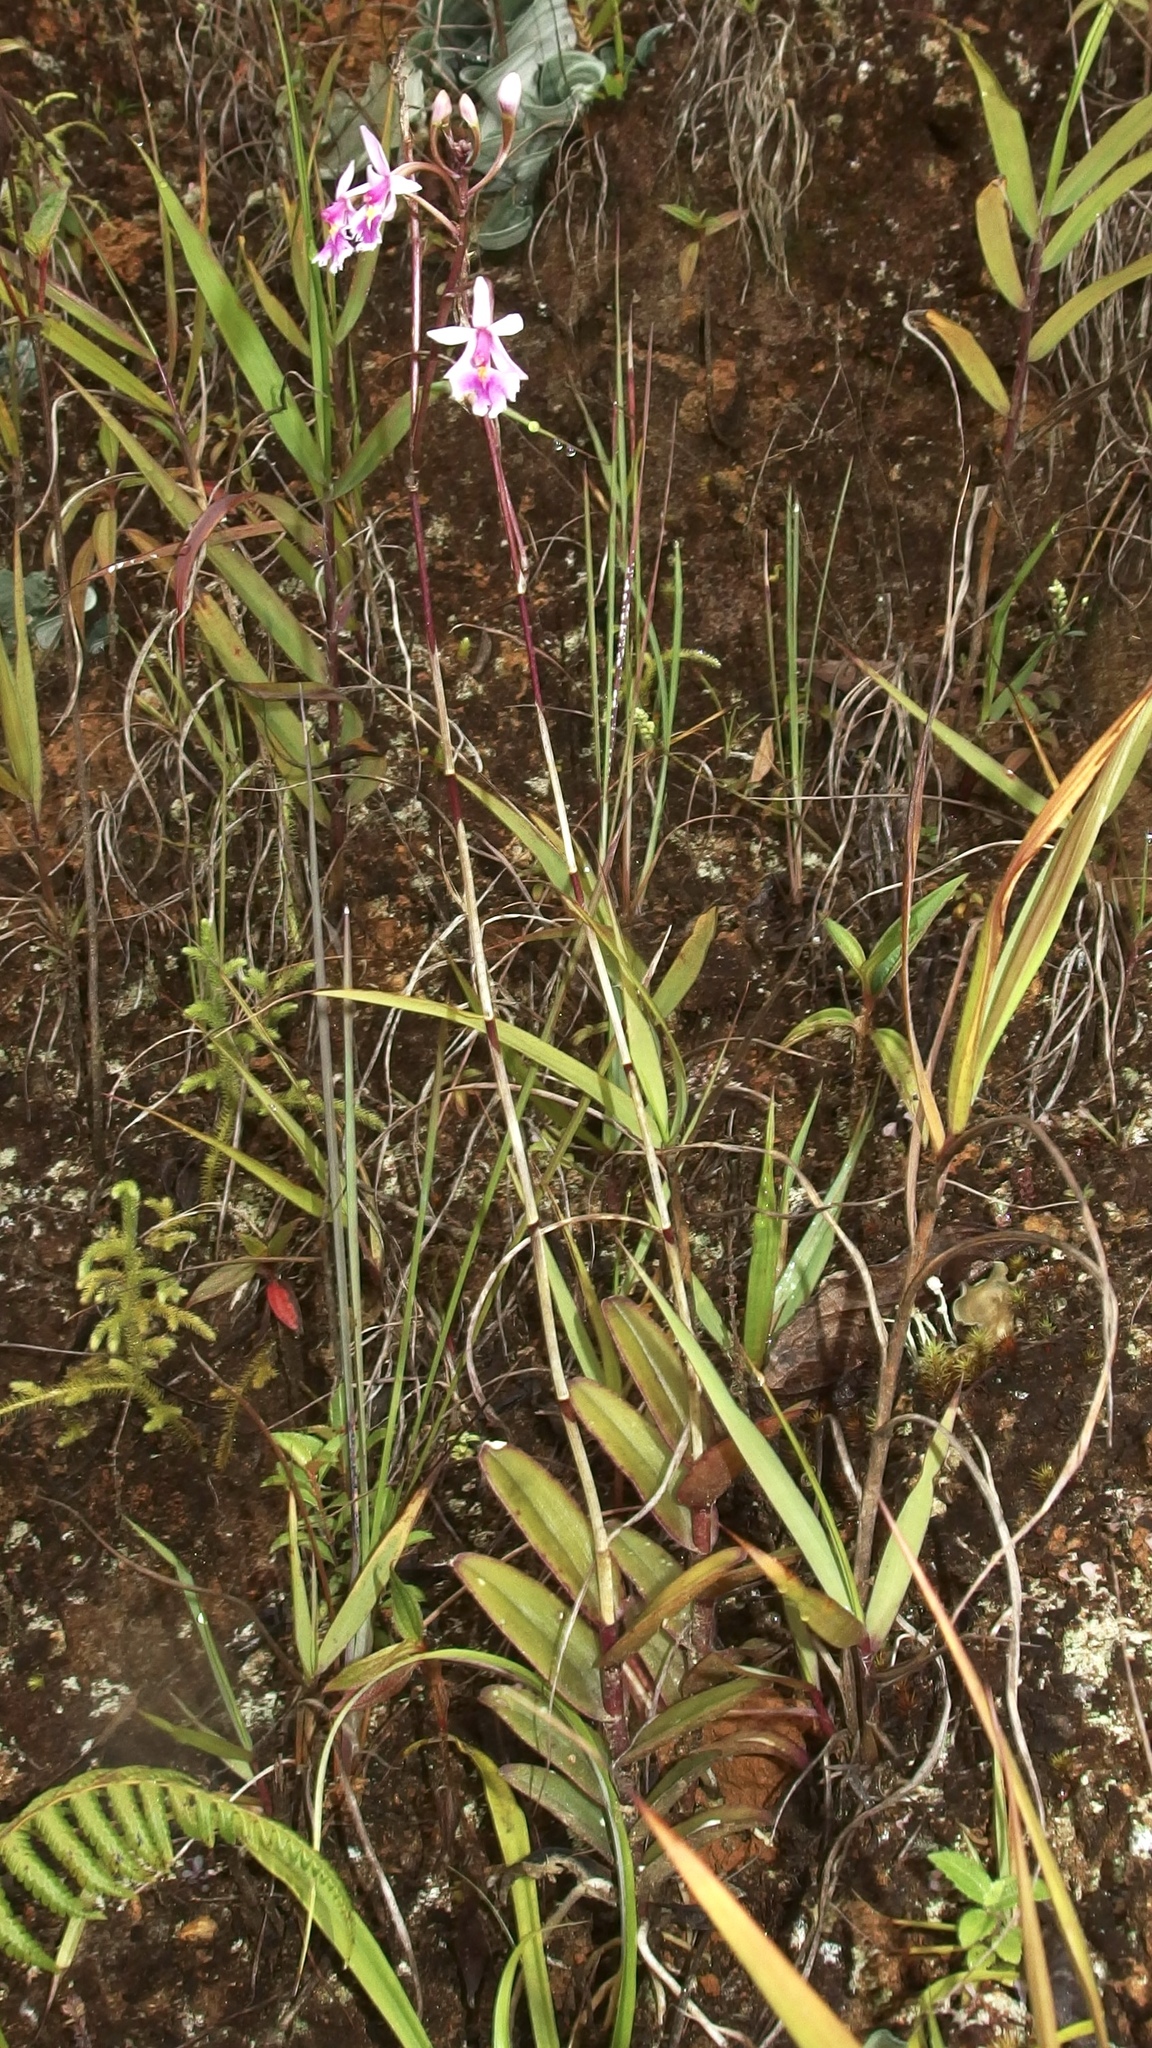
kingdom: Plantae
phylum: Tracheophyta
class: Liliopsida
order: Asparagales
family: Orchidaceae
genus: Epidendrum
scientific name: Epidendrum calanthum
